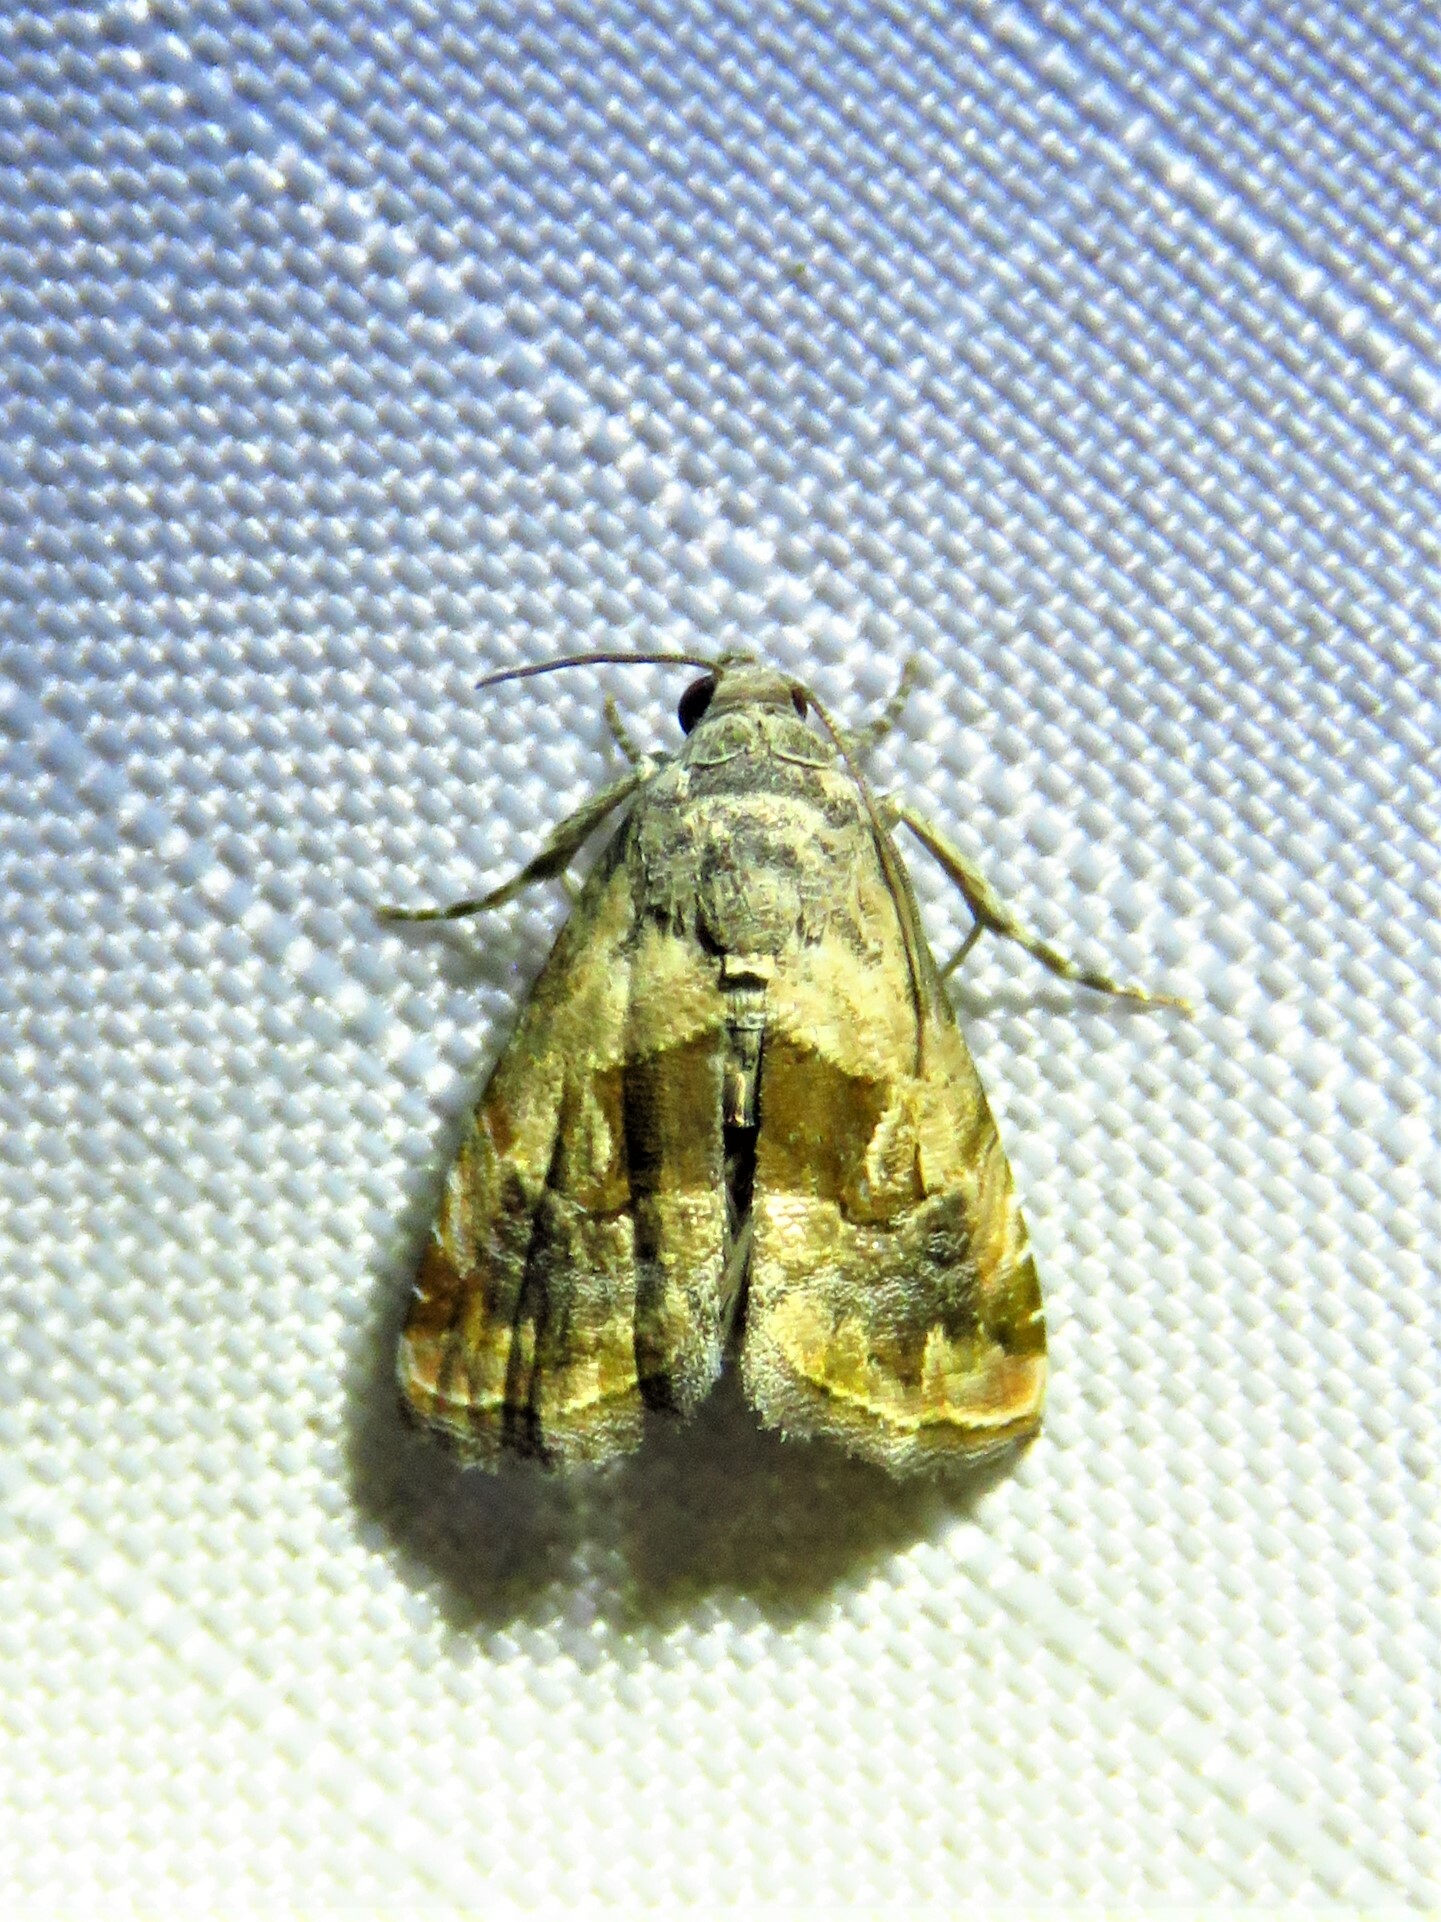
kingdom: Animalia
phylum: Arthropoda
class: Insecta
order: Lepidoptera
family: Noctuidae
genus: Tripudia
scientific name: Tripudia quadrifera
